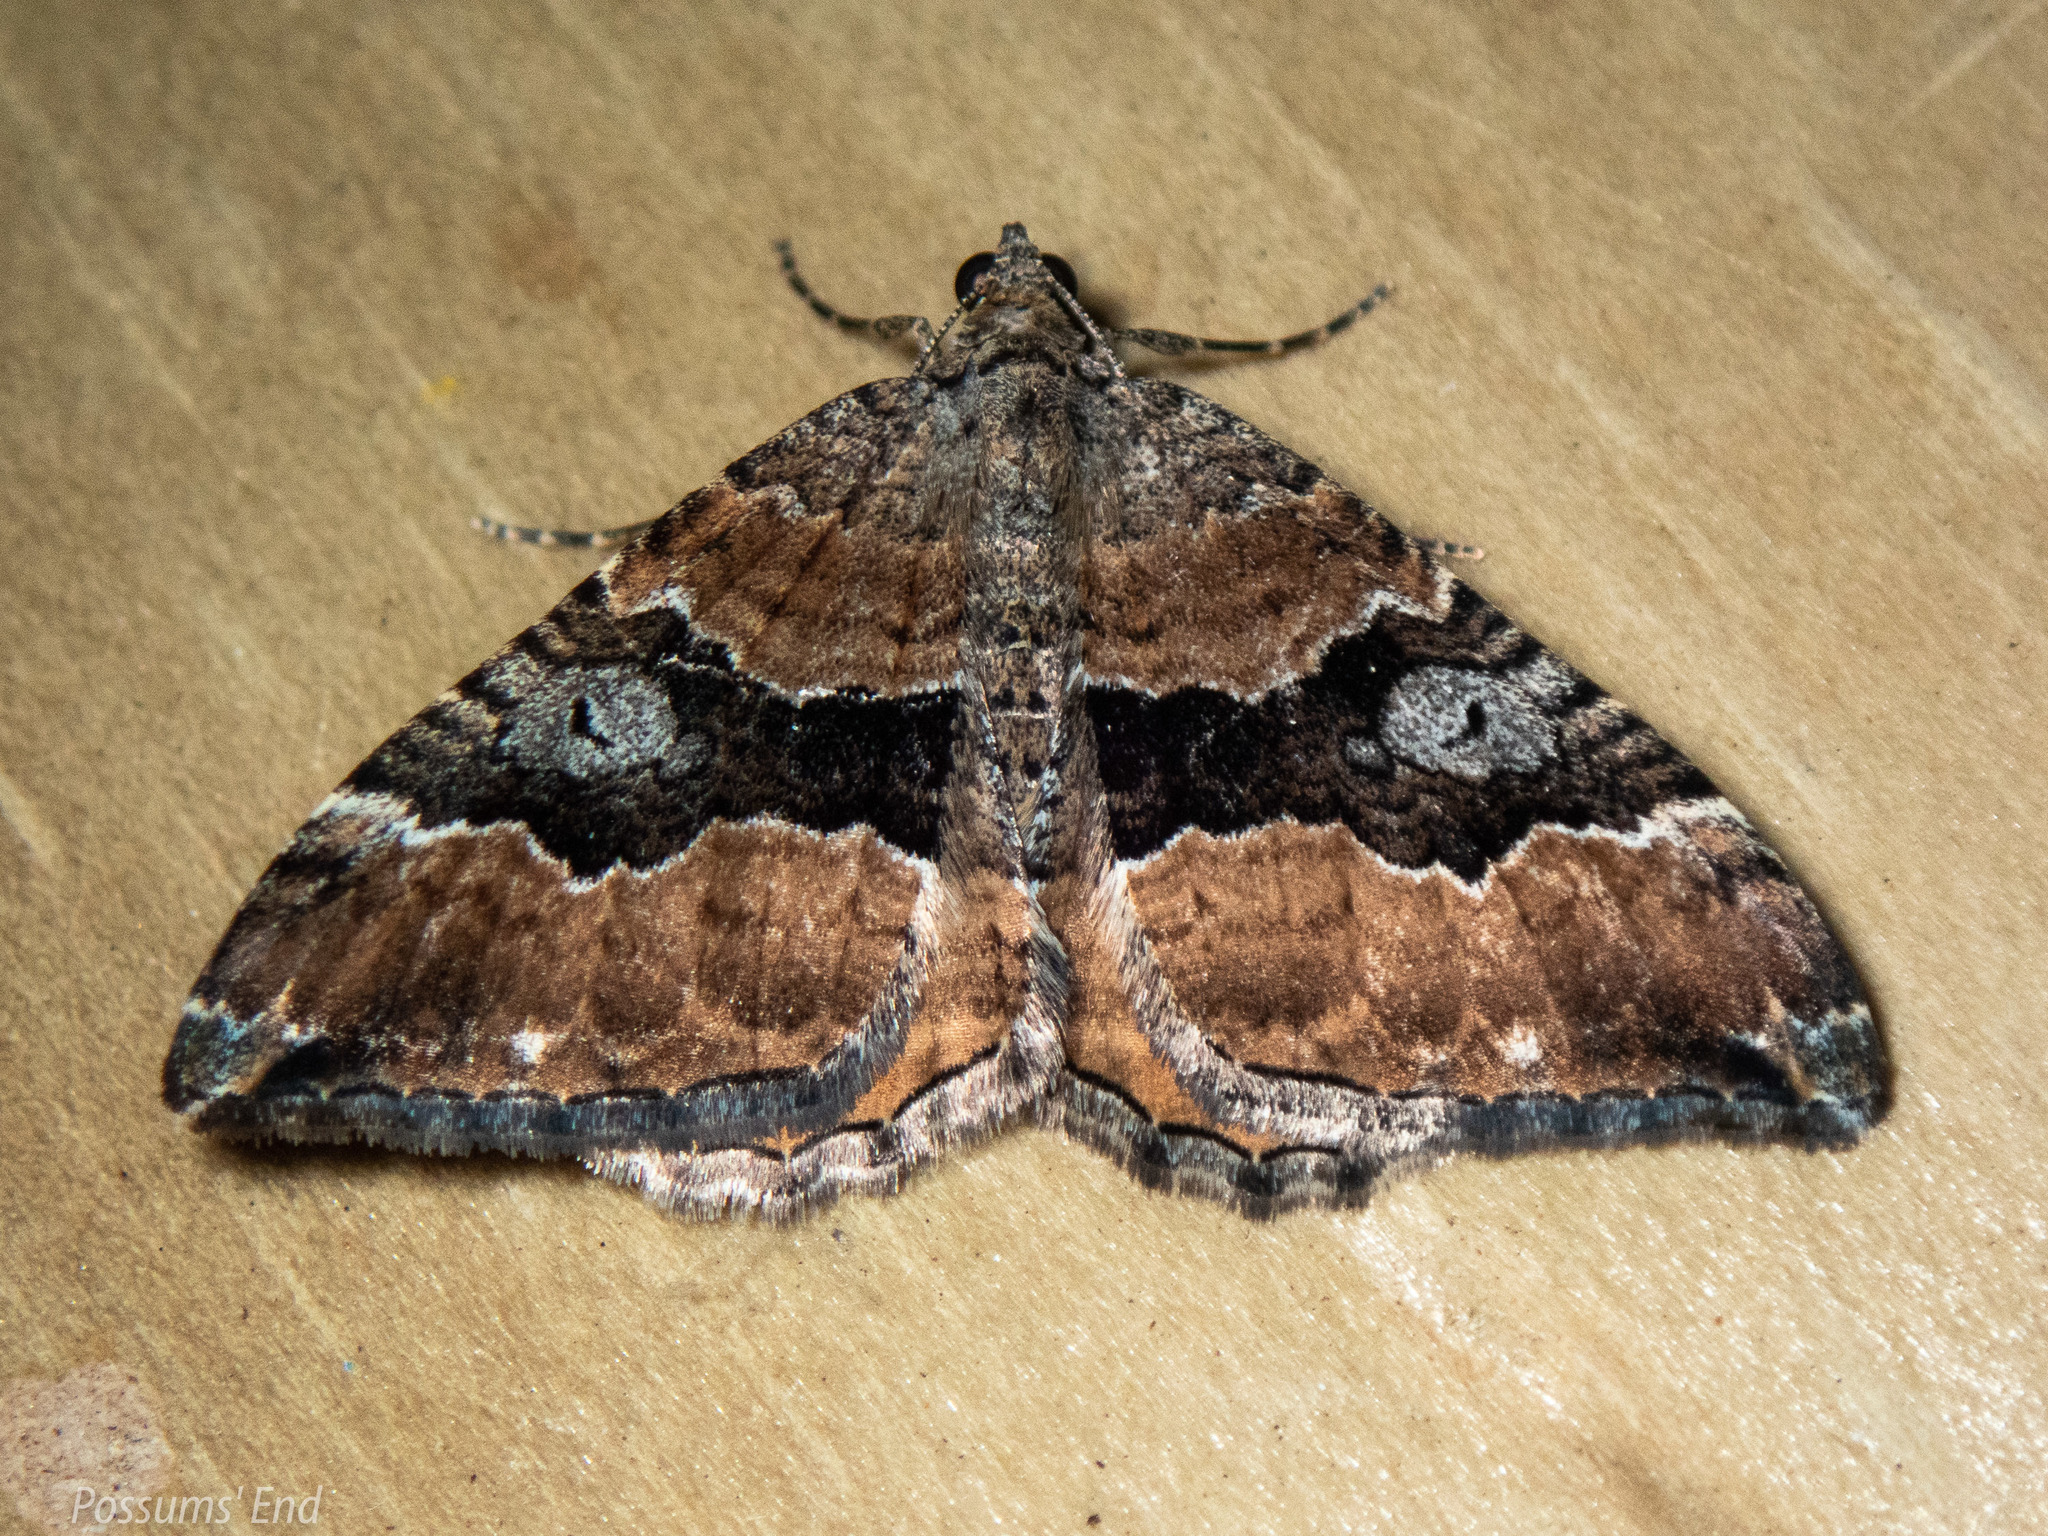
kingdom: Animalia
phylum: Arthropoda
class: Insecta
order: Lepidoptera
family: Geometridae
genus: Hydriomena
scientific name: Hydriomena deltoidata
